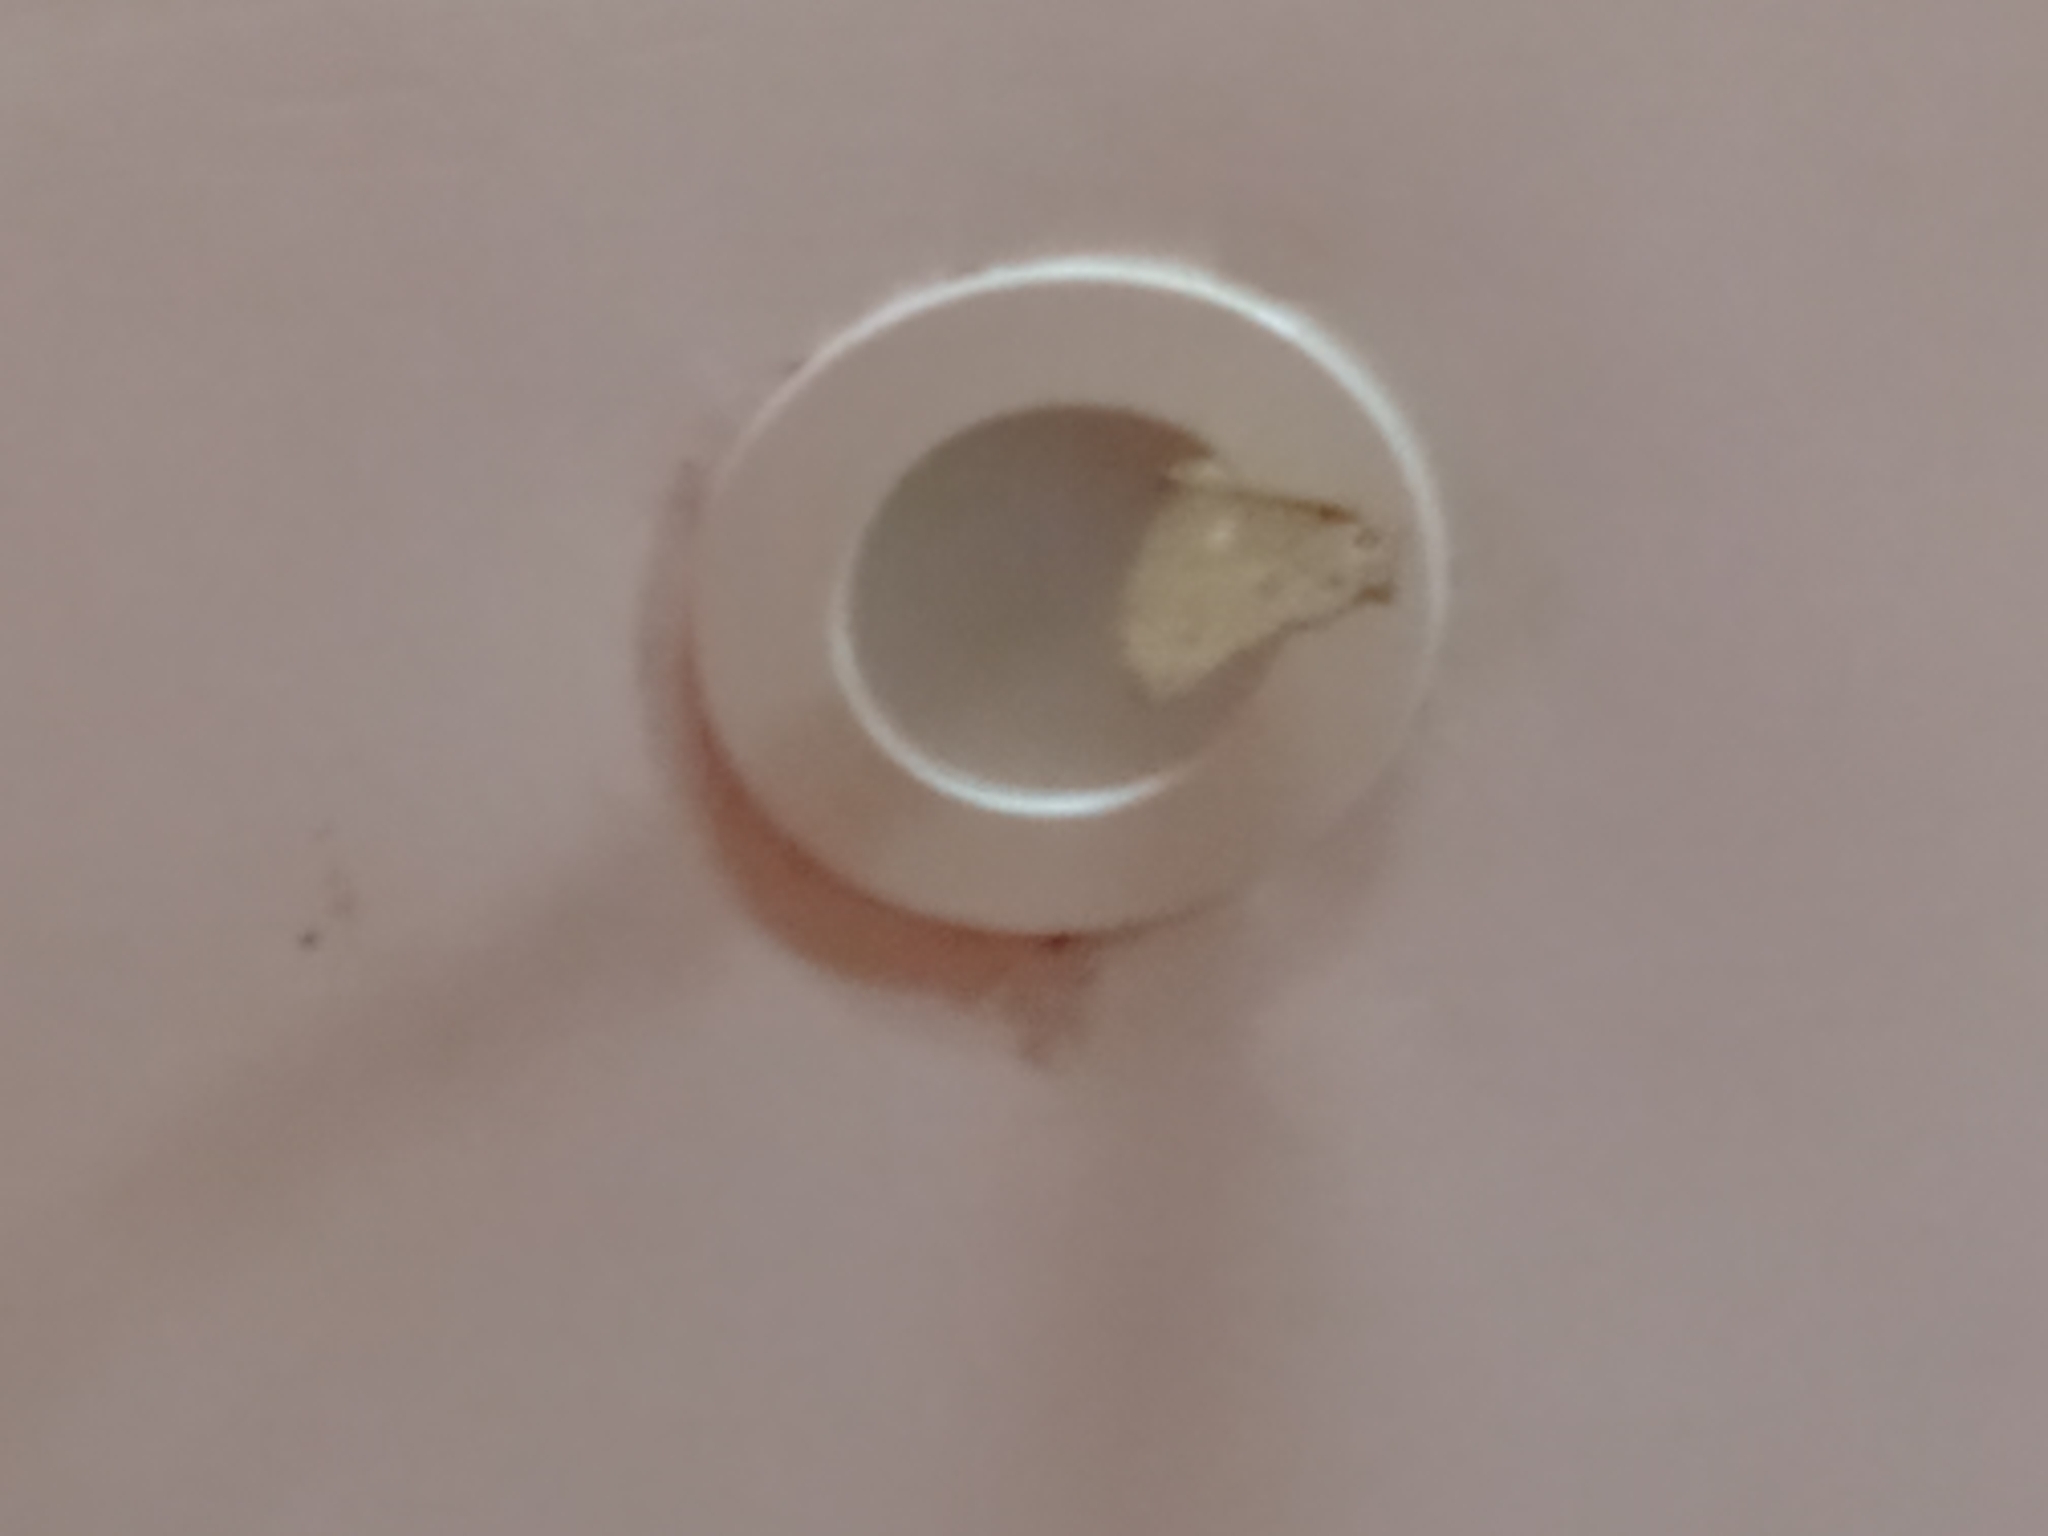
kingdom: Animalia
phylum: Arthropoda
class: Insecta
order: Lepidoptera
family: Nymphalidae
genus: Melanitis
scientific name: Melanitis leda
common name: Twilight brown
